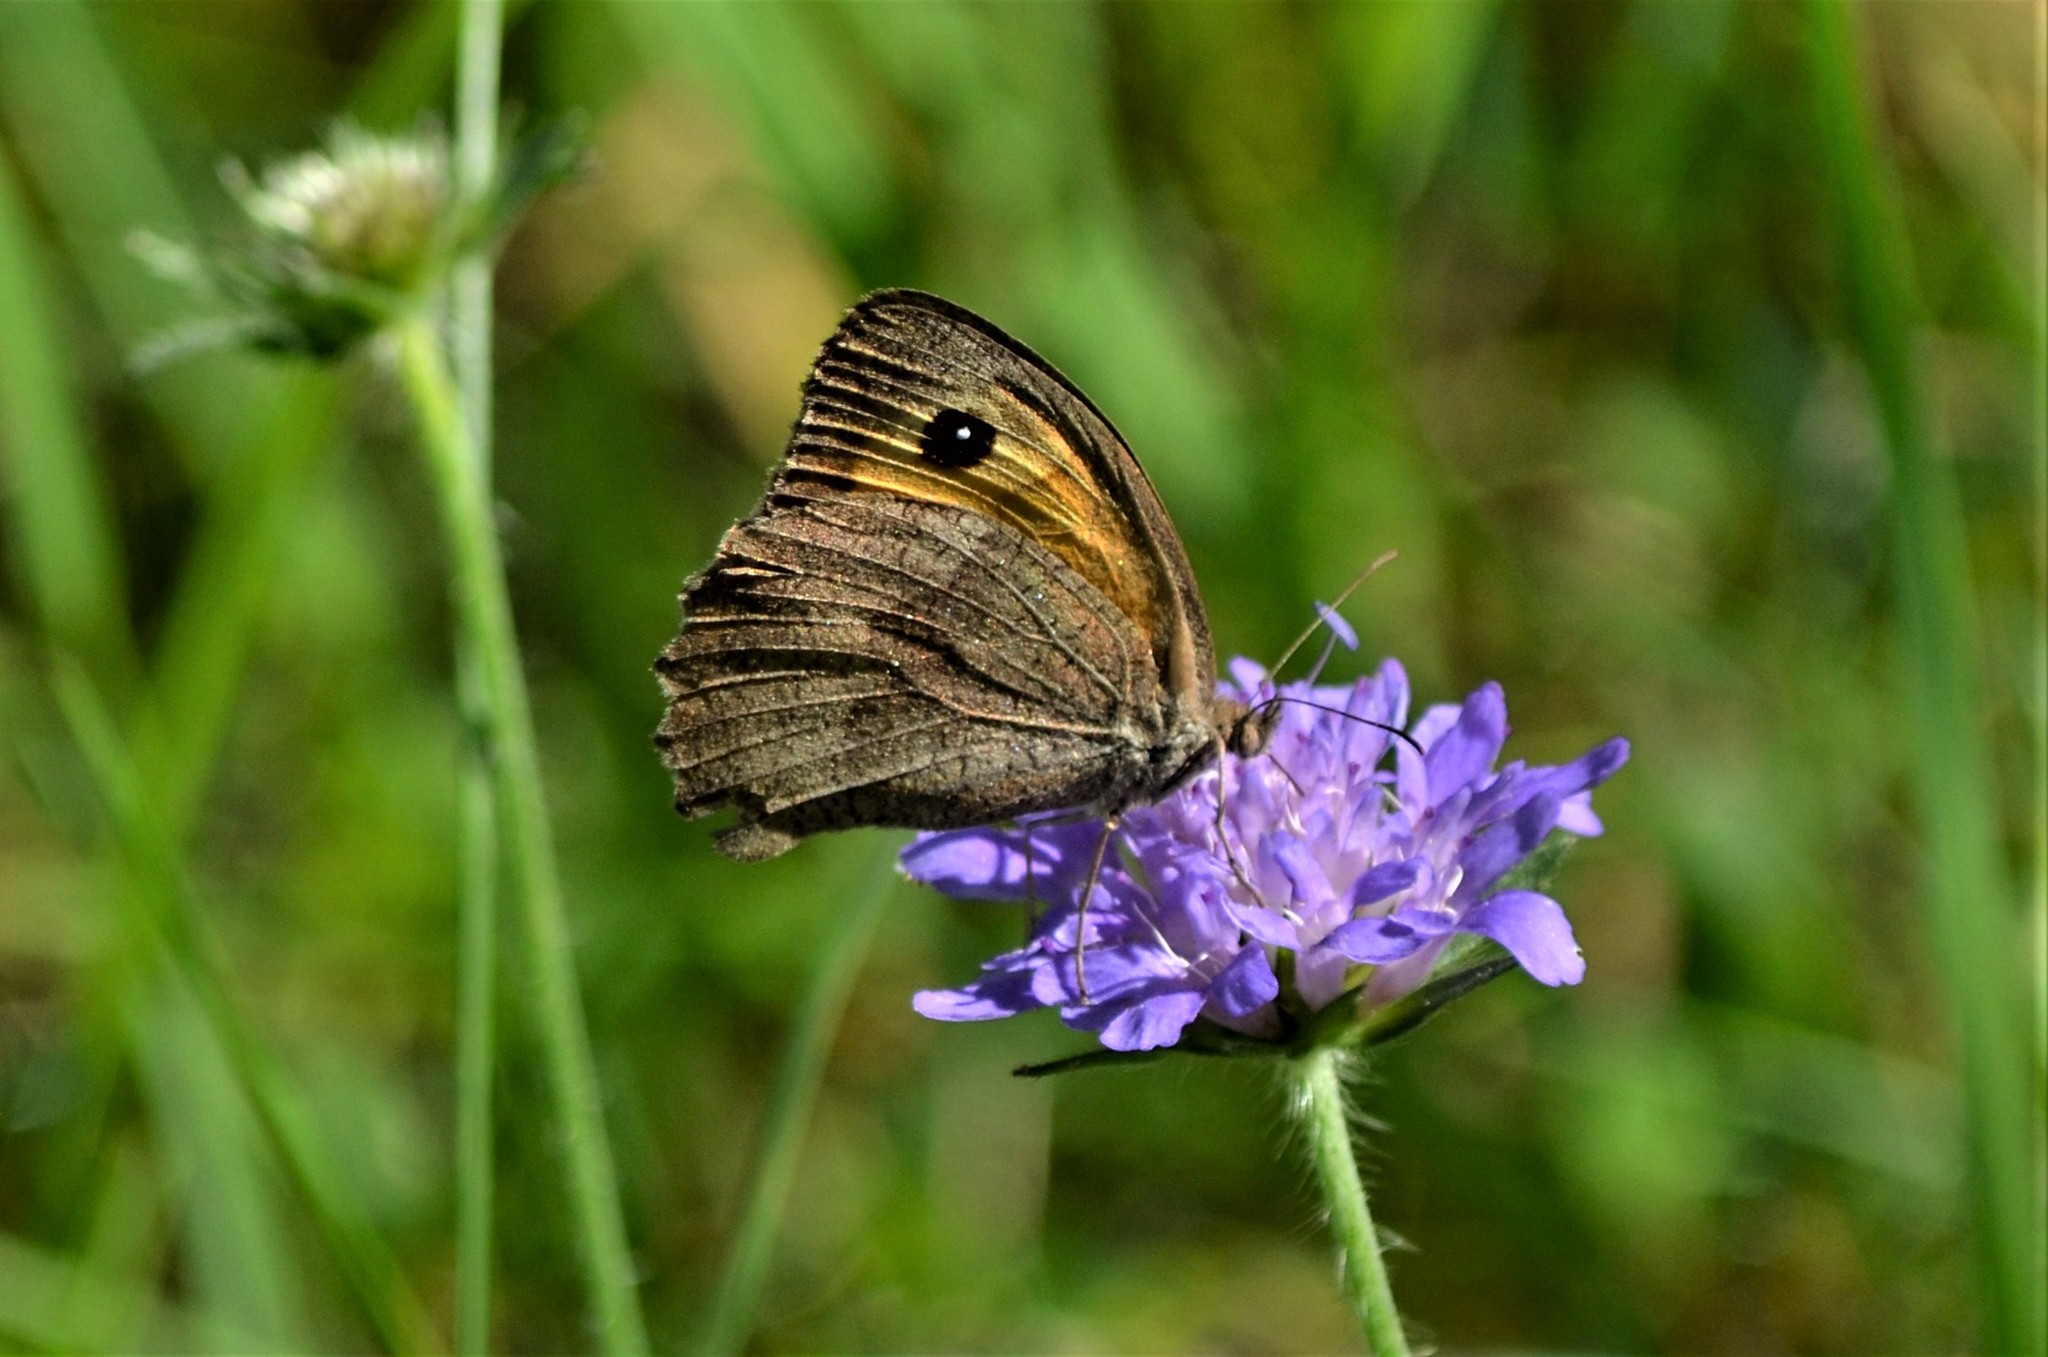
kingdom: Animalia
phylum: Arthropoda
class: Insecta
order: Lepidoptera
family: Nymphalidae
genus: Maniola
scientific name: Maniola jurtina
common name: Meadow brown
